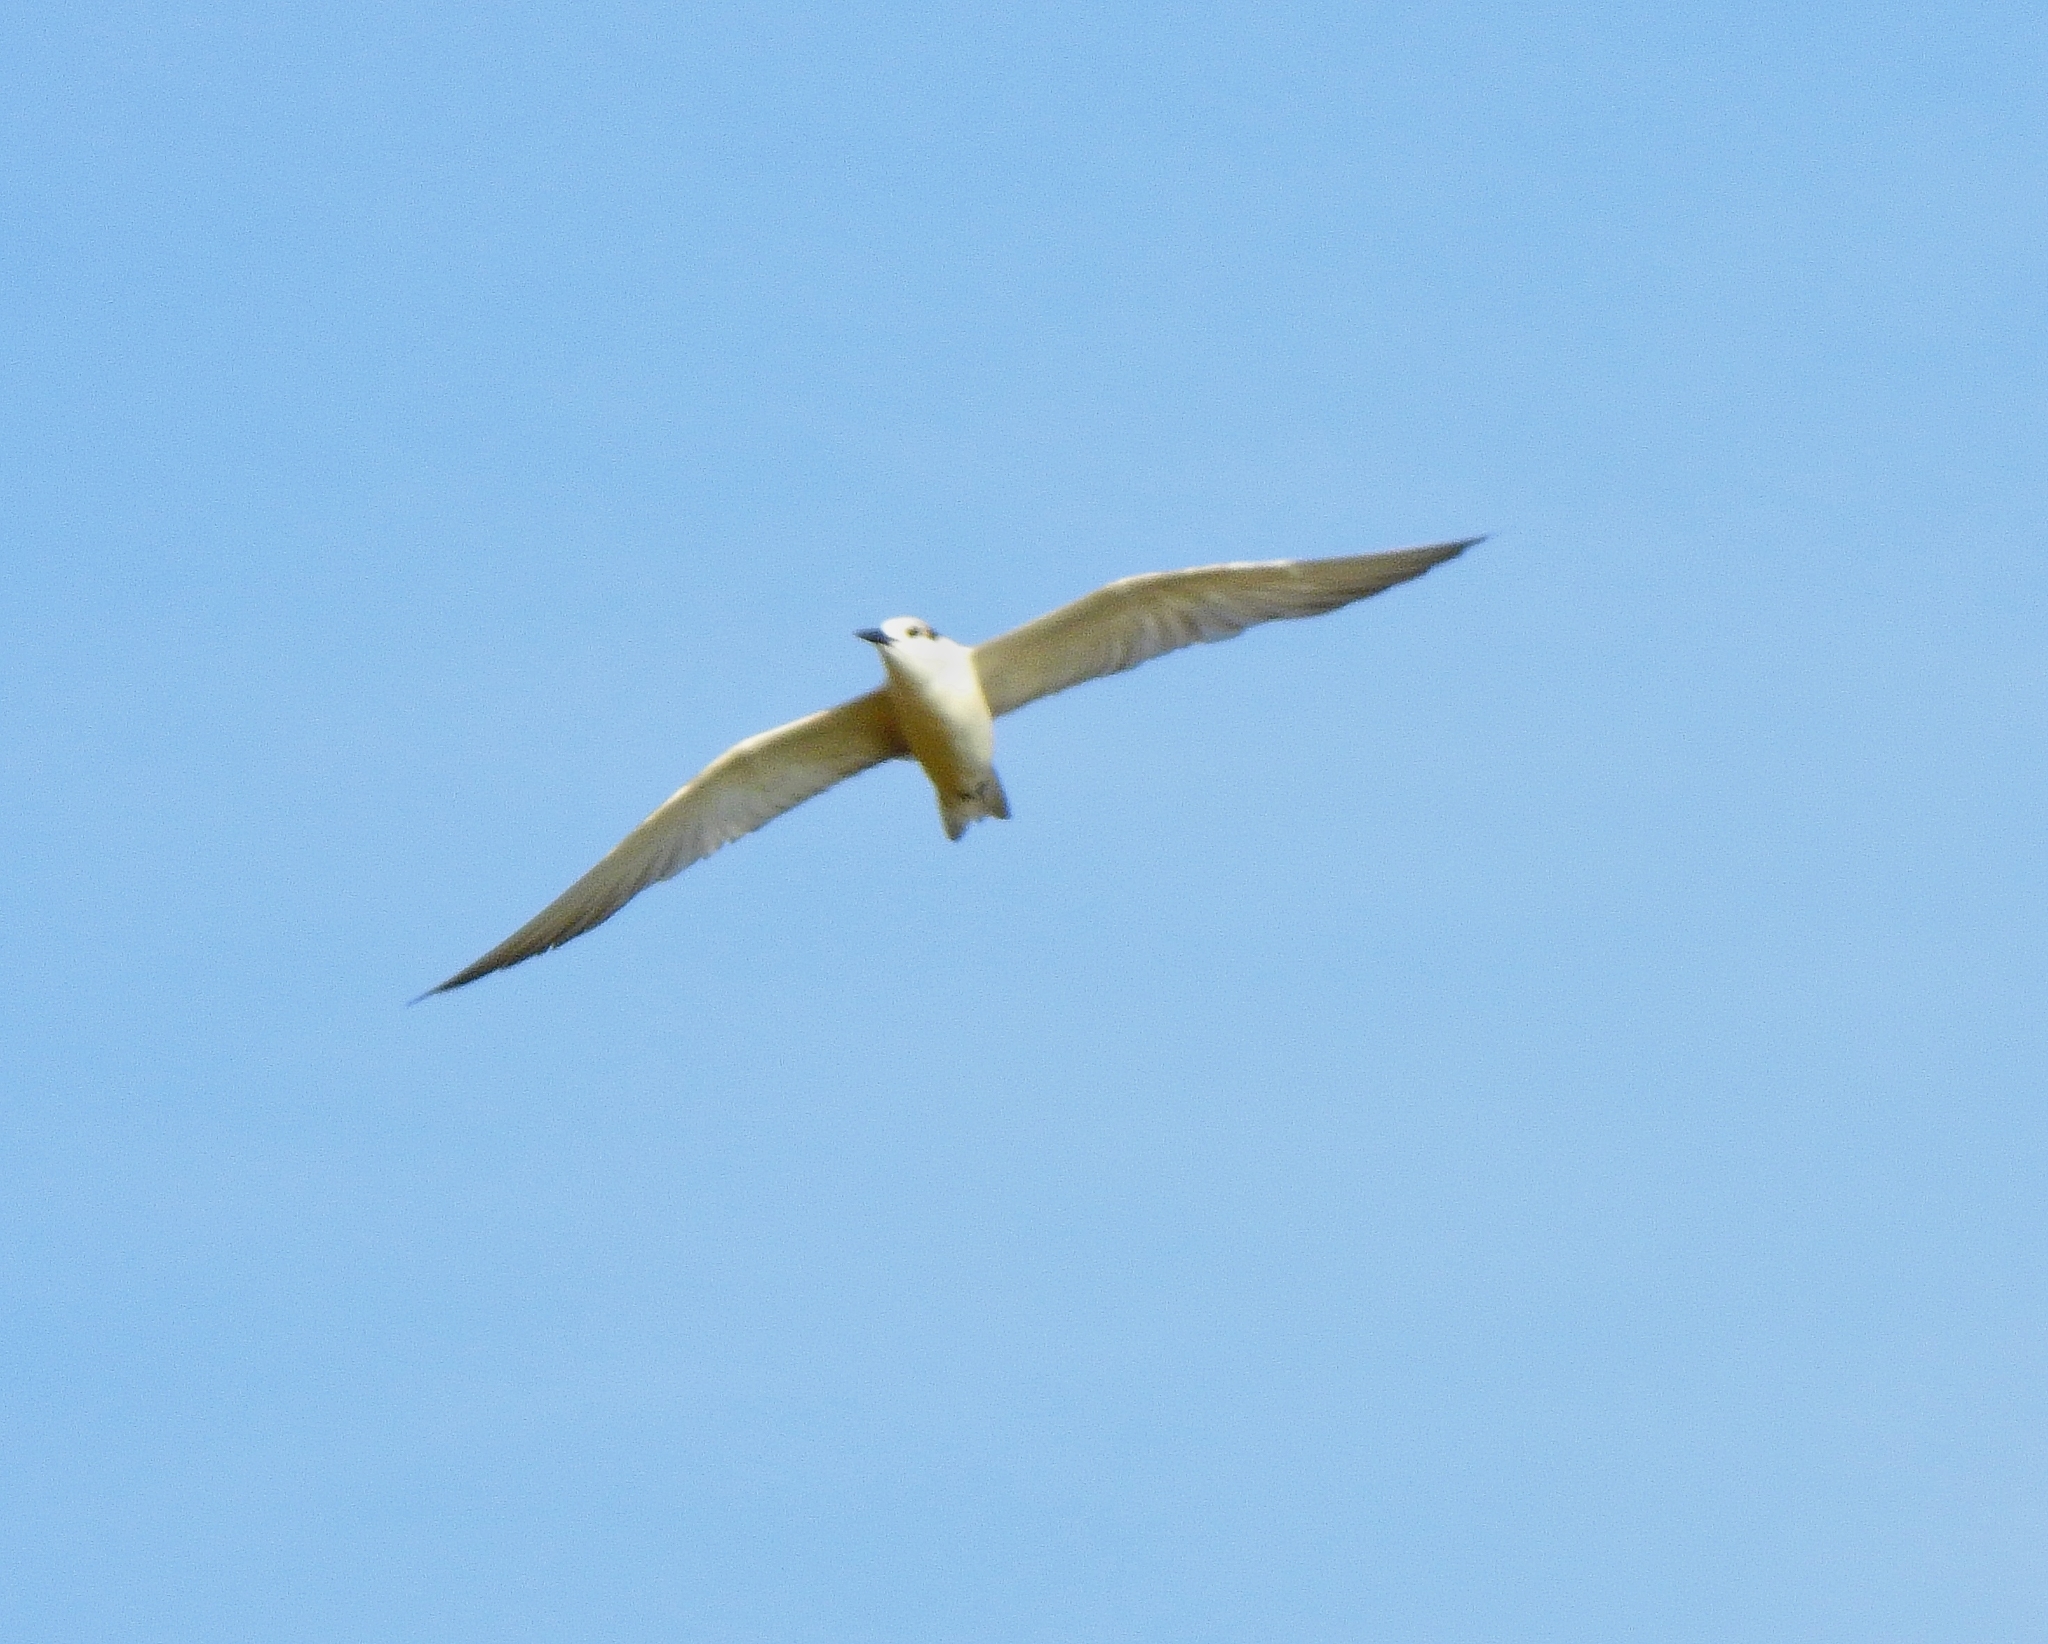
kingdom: Animalia
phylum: Chordata
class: Aves
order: Charadriiformes
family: Laridae
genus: Gelochelidon
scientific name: Gelochelidon nilotica
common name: Gull-billed tern
